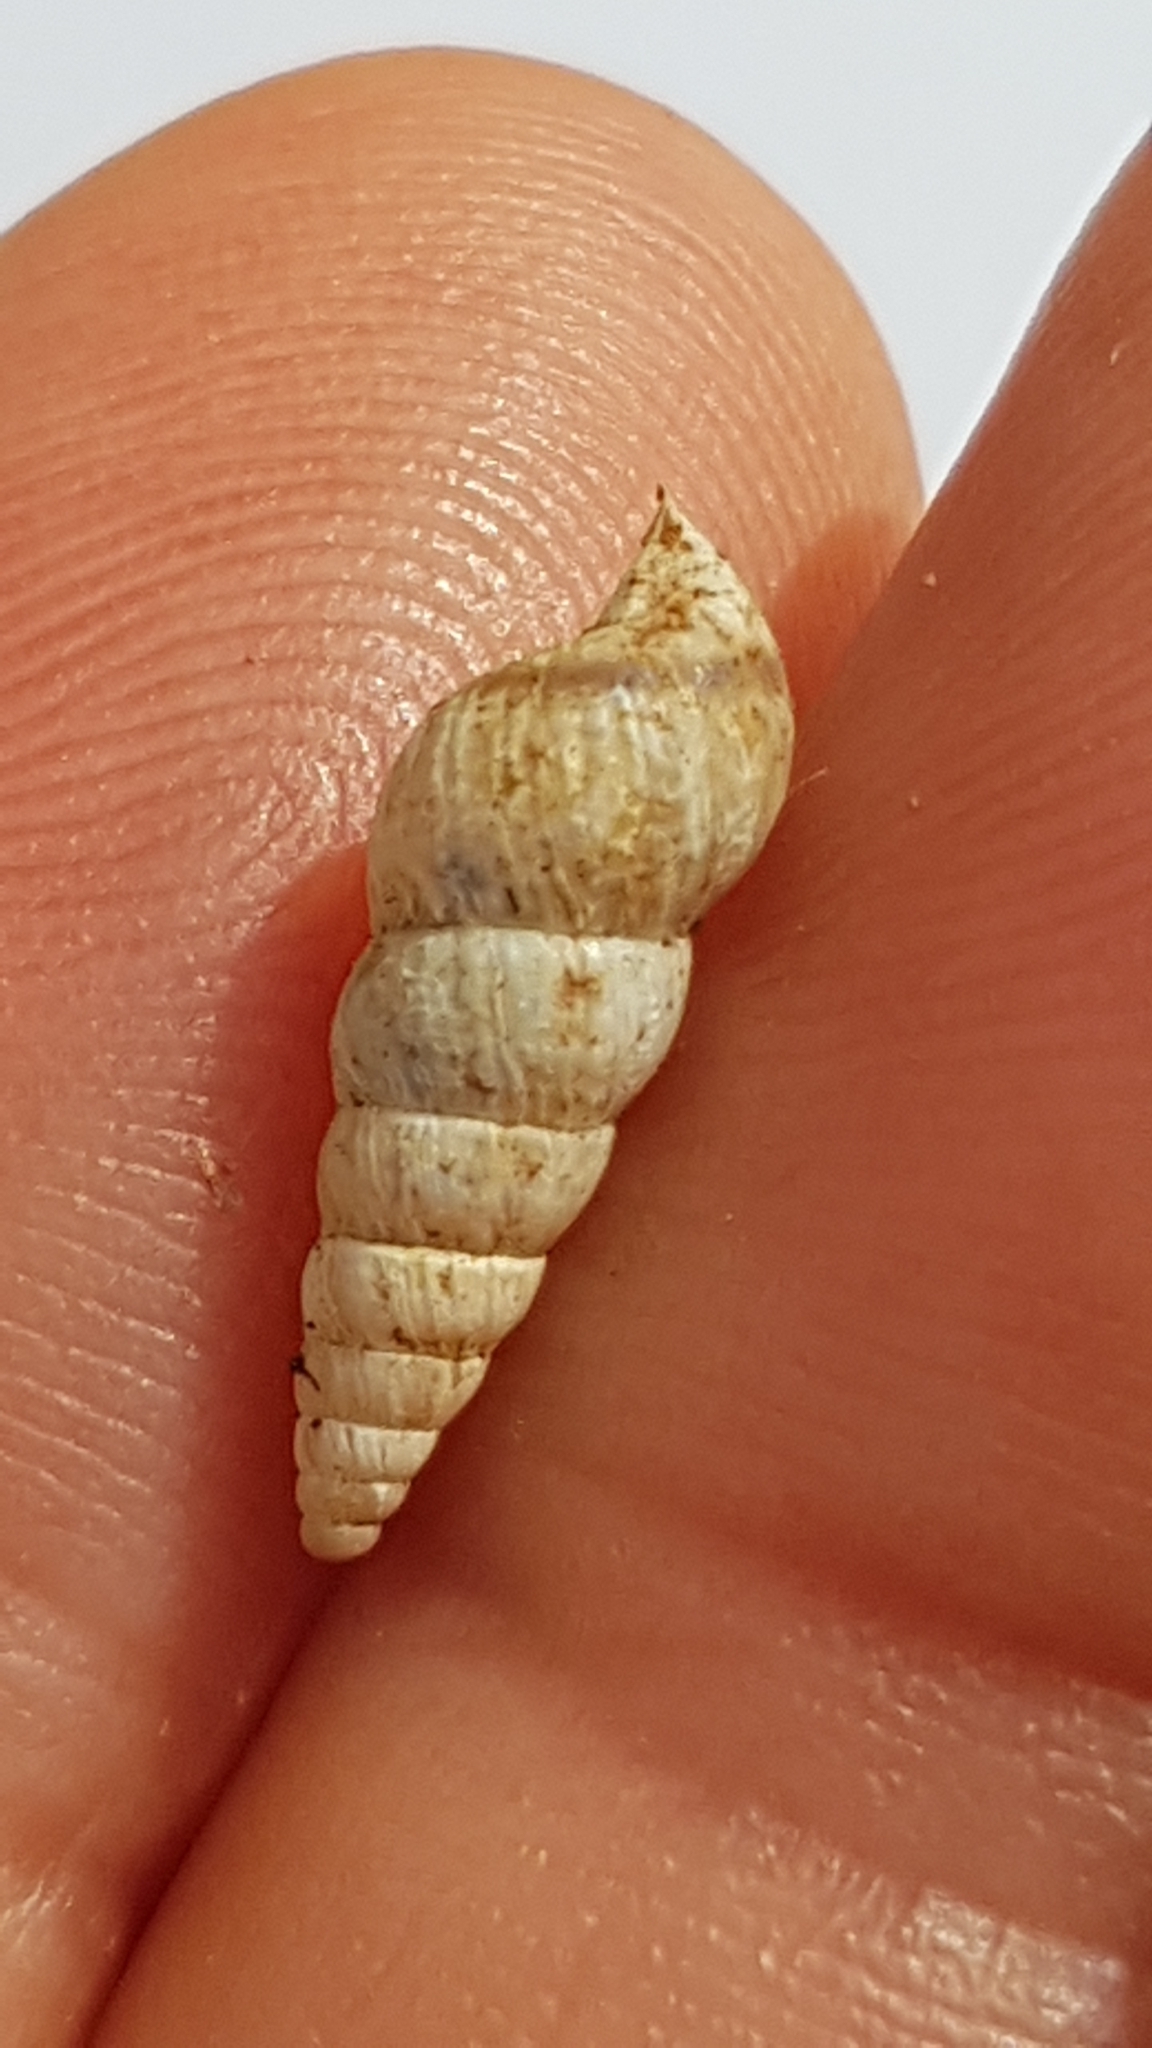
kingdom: Animalia
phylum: Mollusca
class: Gastropoda
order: Stylommatophora
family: Geomitridae
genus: Cochlicella
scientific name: Cochlicella acuta
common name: Pointed snail
